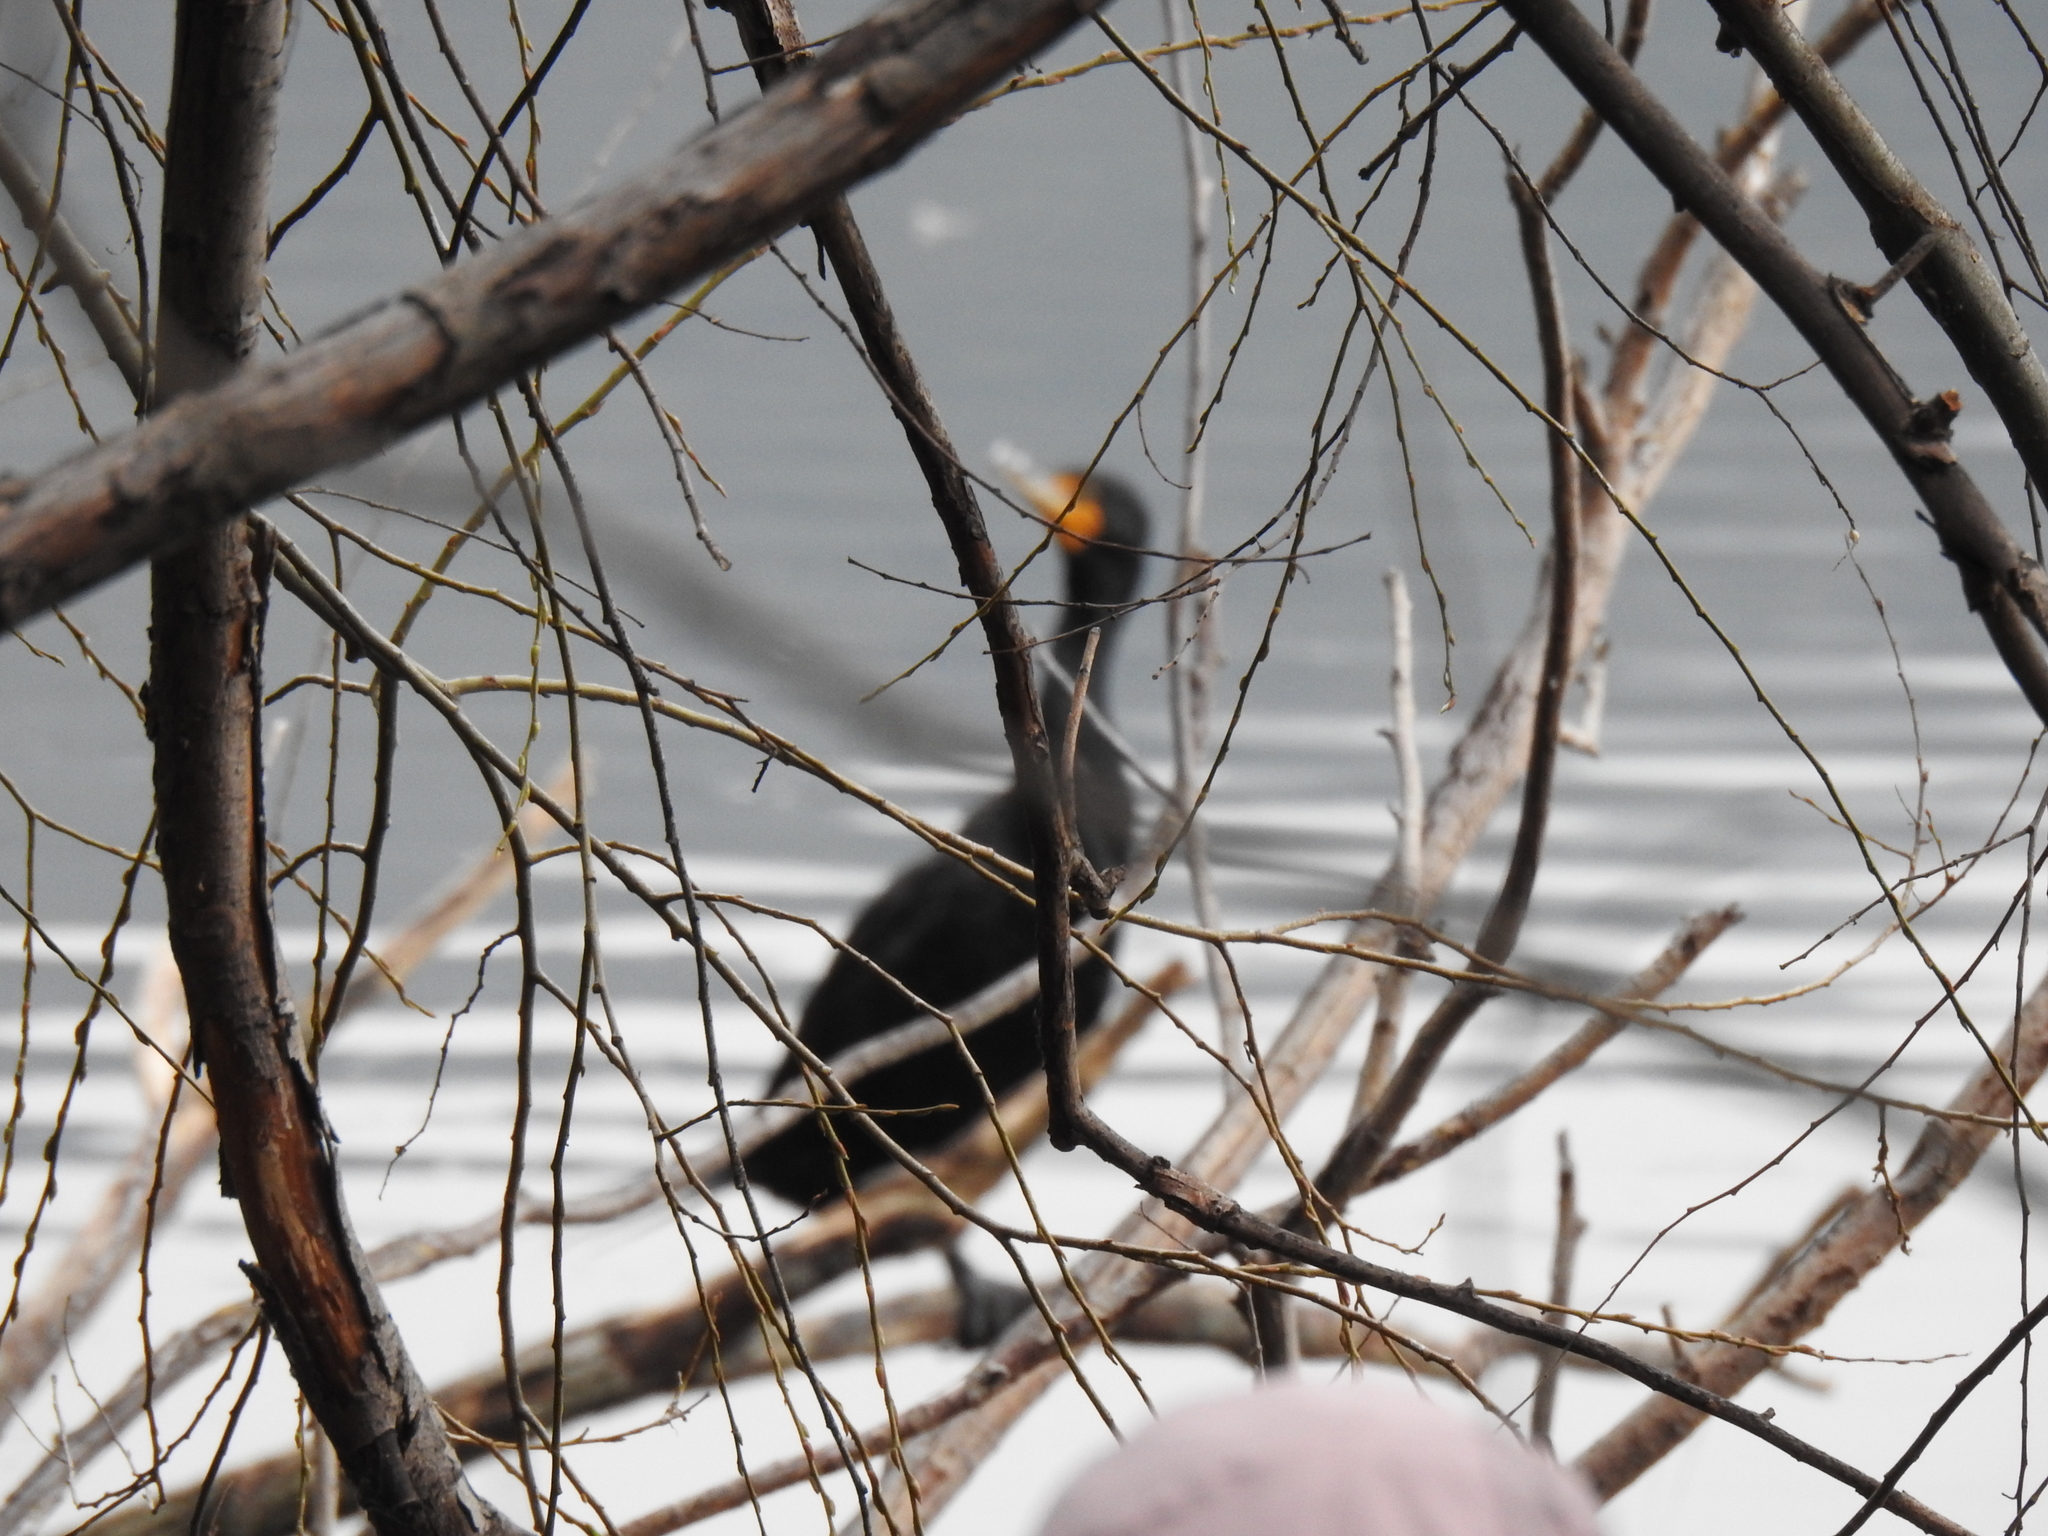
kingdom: Animalia
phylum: Chordata
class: Aves
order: Suliformes
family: Phalacrocoracidae
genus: Phalacrocorax
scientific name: Phalacrocorax auritus
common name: Double-crested cormorant
